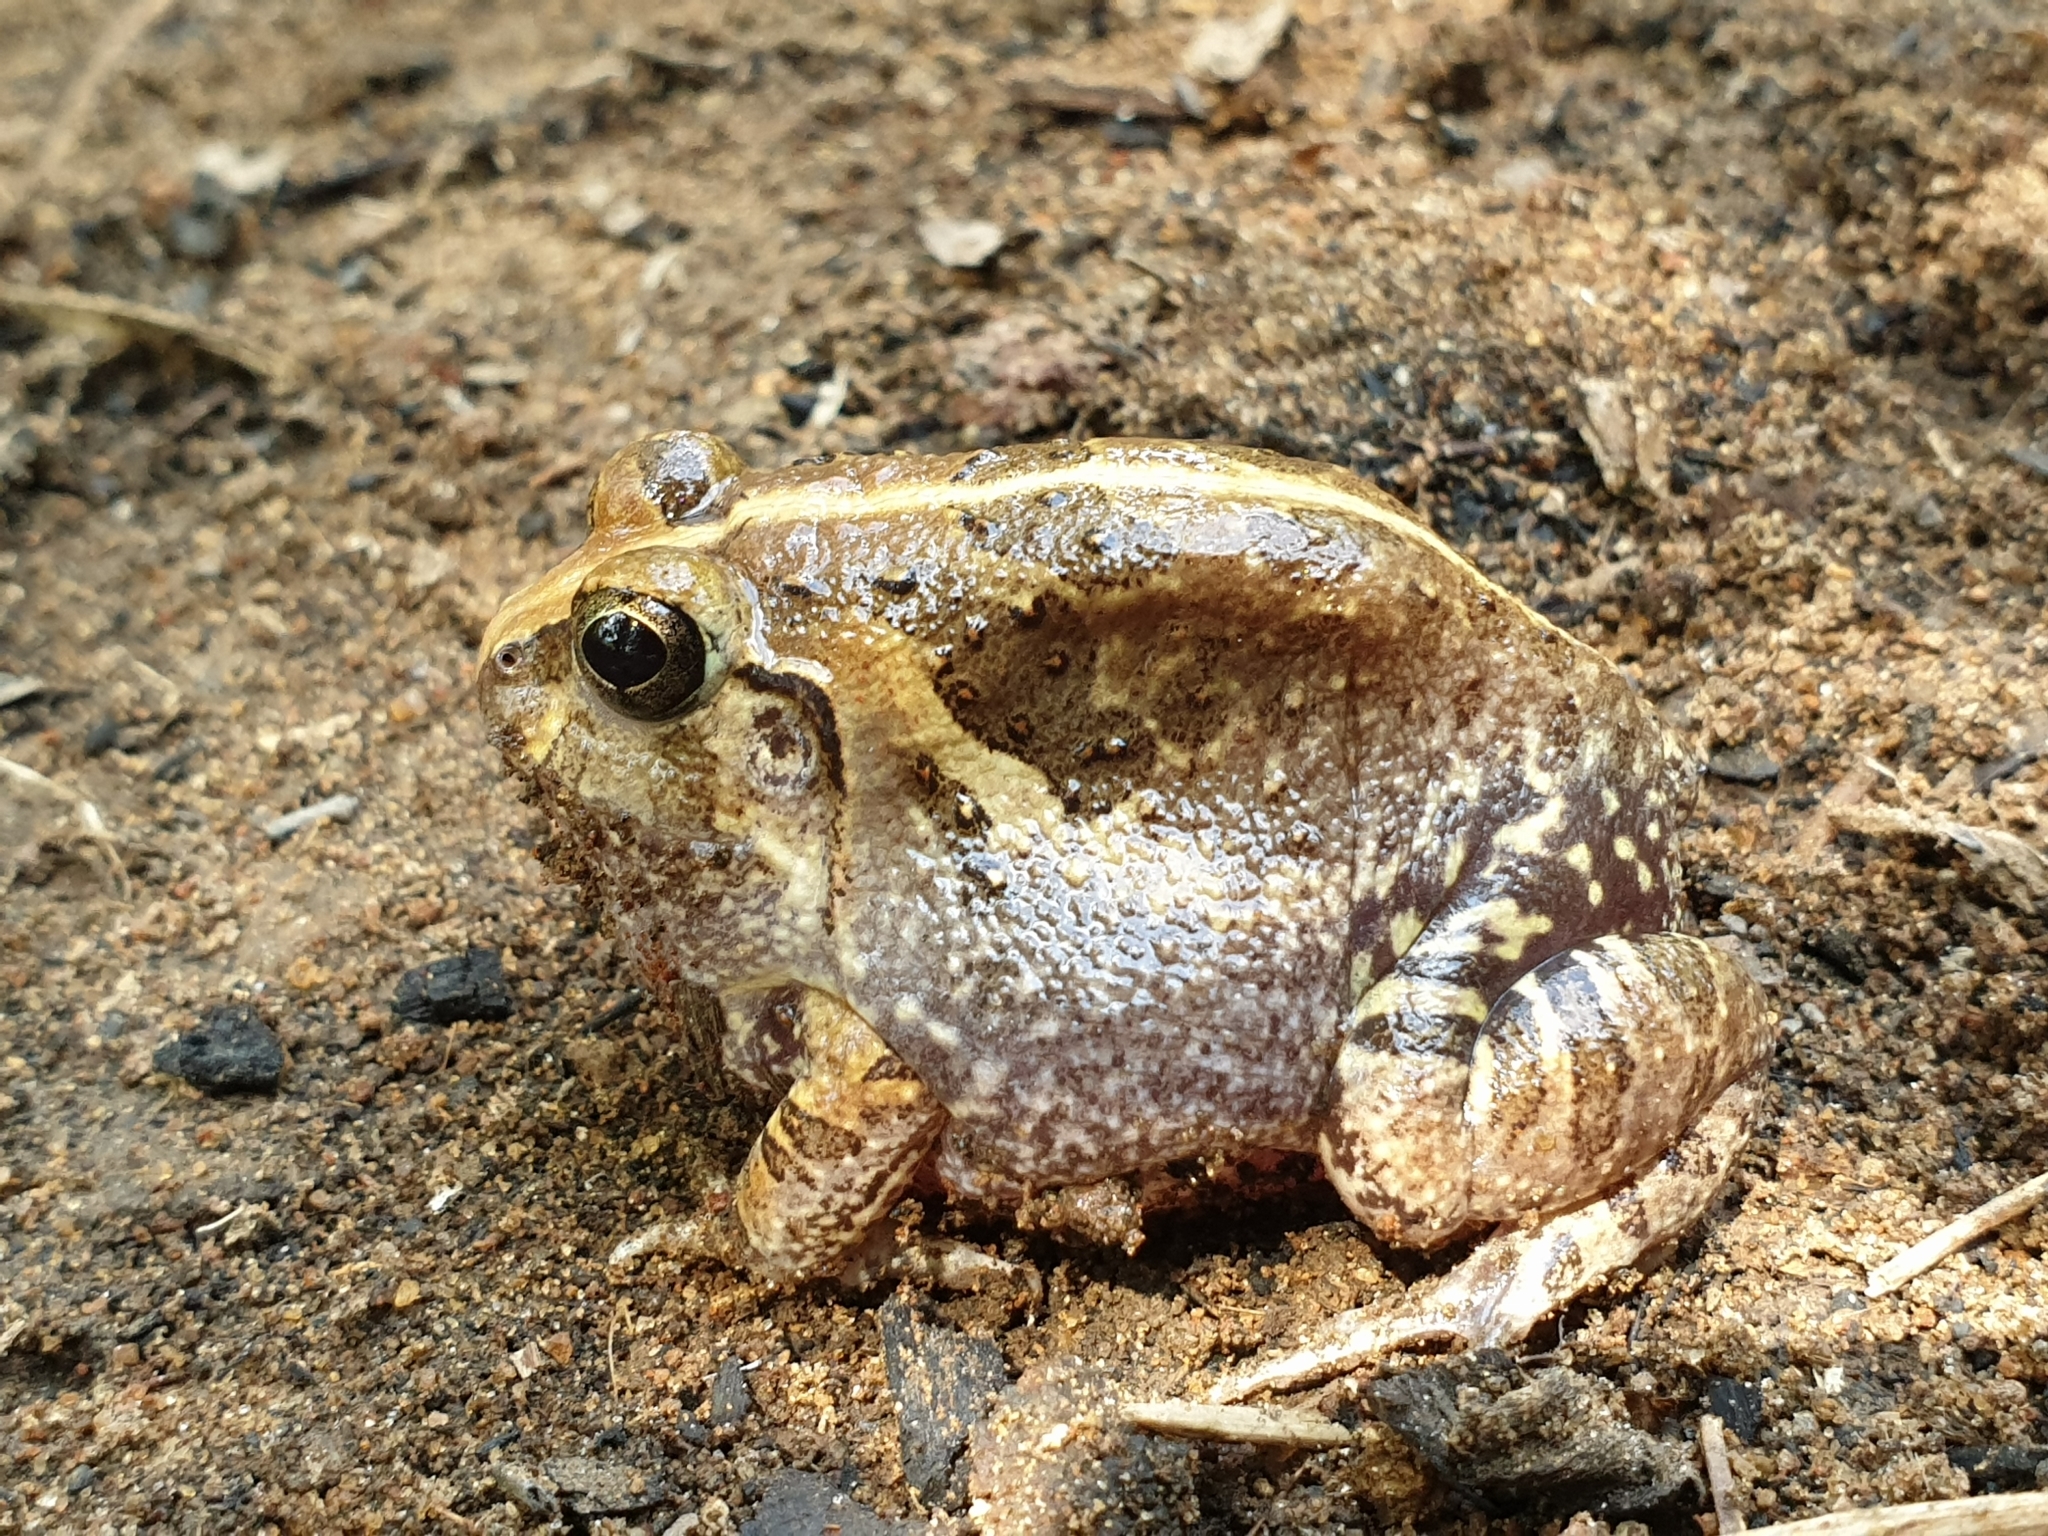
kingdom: Animalia
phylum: Chordata
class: Amphibia
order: Anura
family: Dicroglossidae
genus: Sphaerotheca
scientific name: Sphaerotheca breviceps
